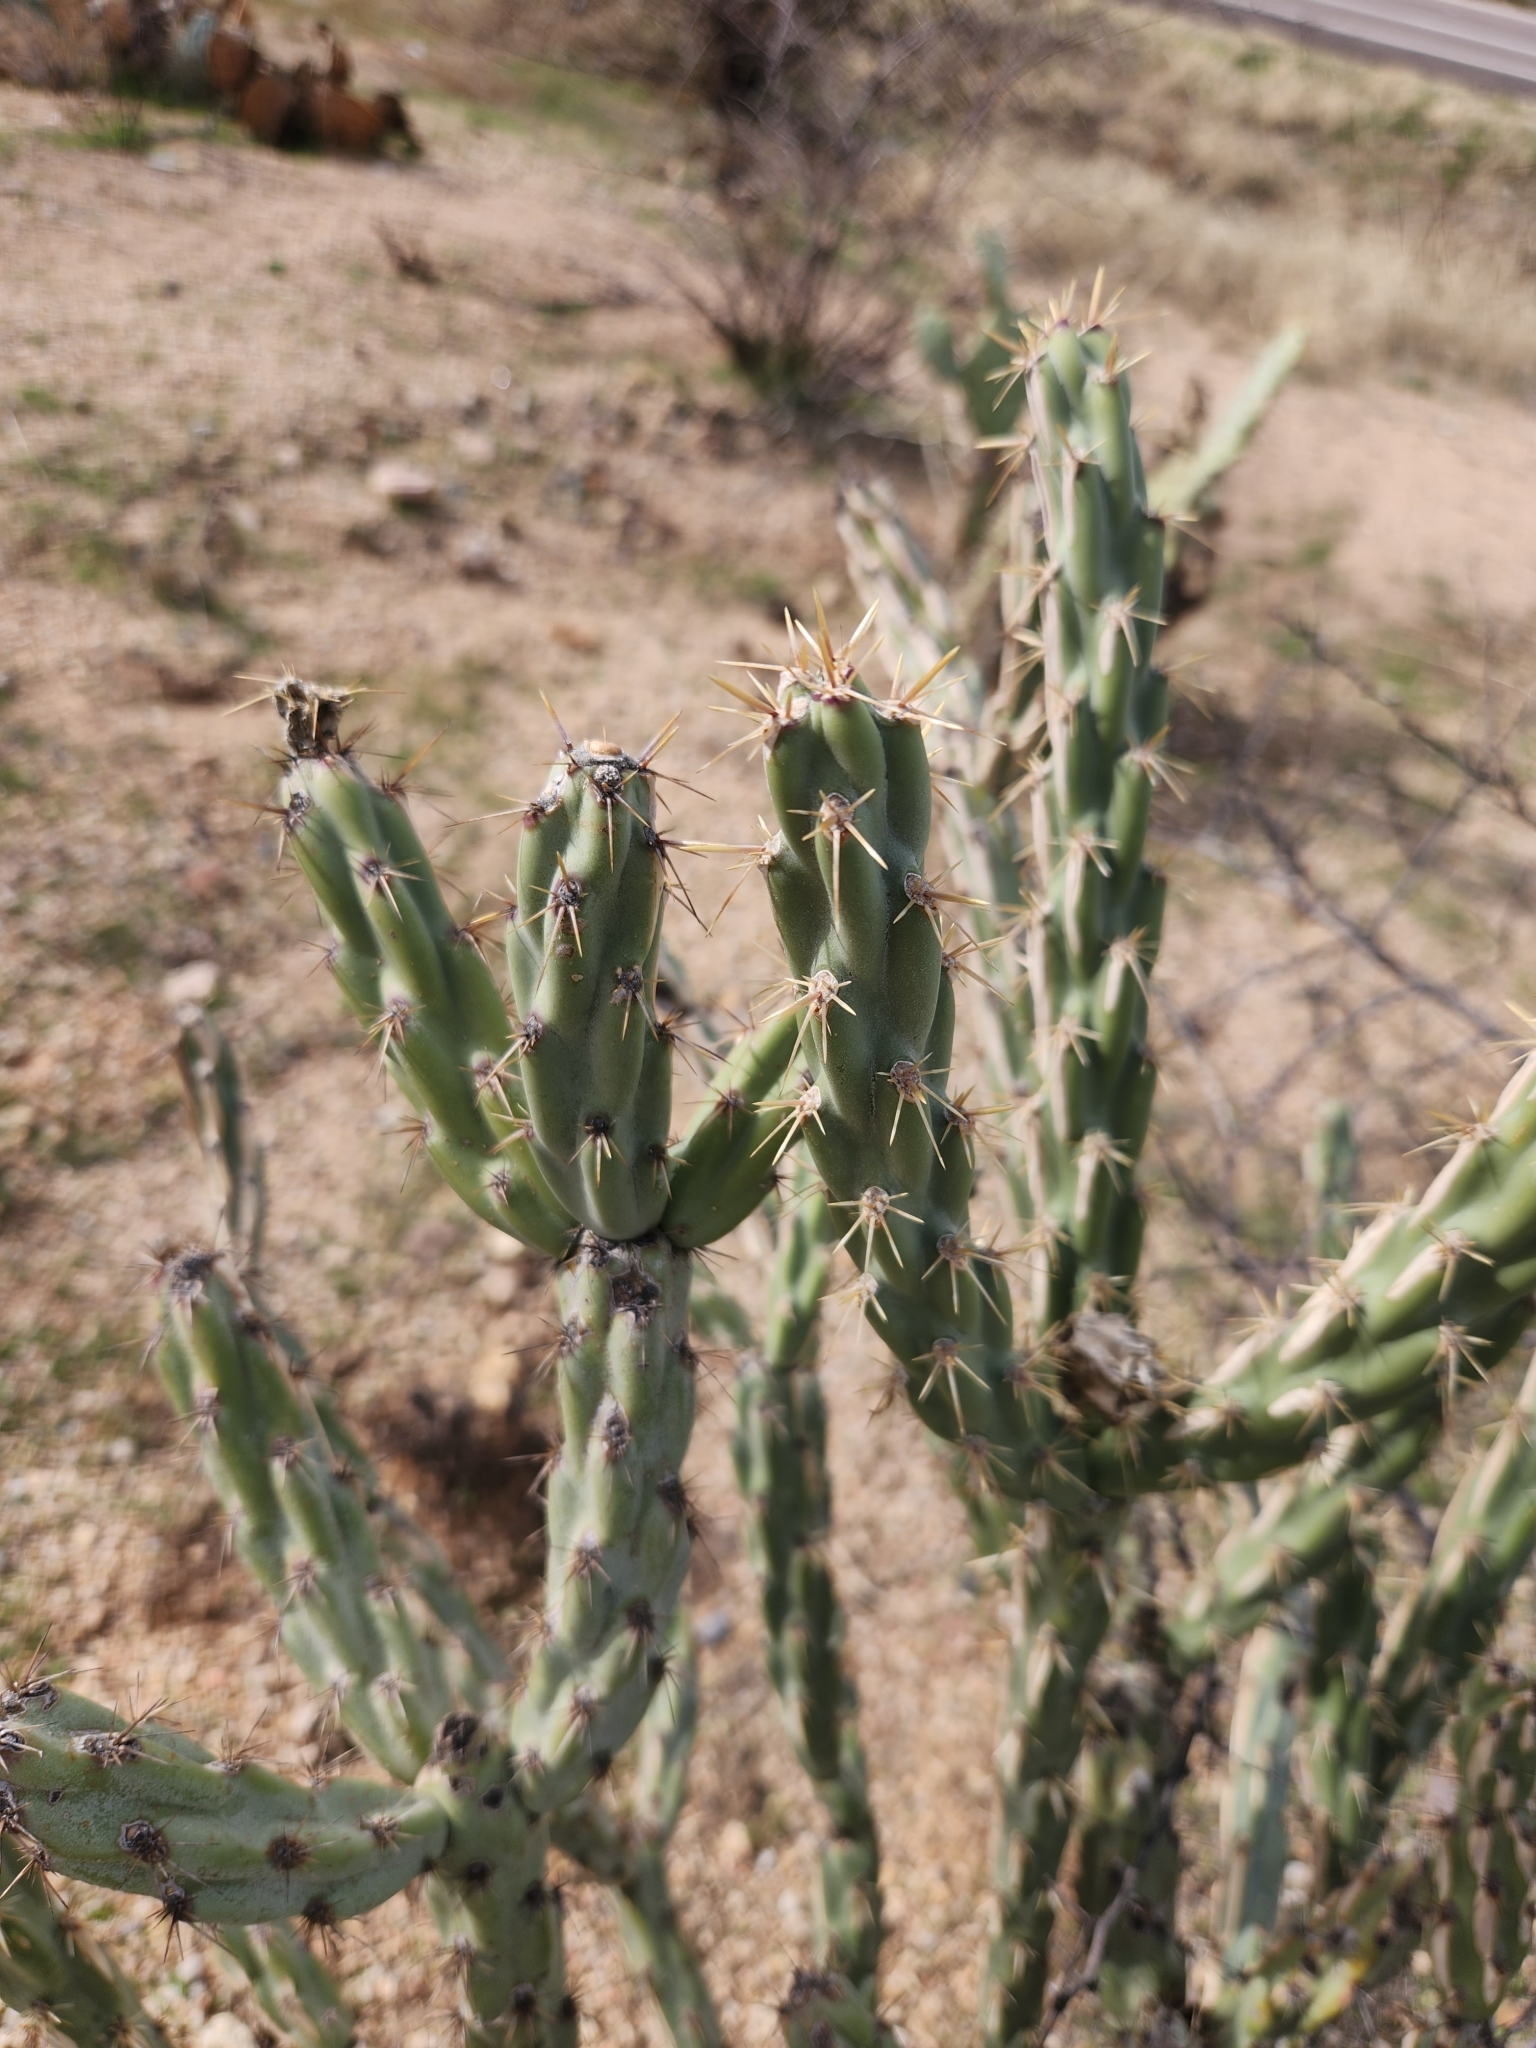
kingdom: Plantae
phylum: Tracheophyta
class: Magnoliopsida
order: Caryophyllales
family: Cactaceae
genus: Cylindropuntia
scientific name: Cylindropuntia acanthocarpa
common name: Buckhorn cholla
